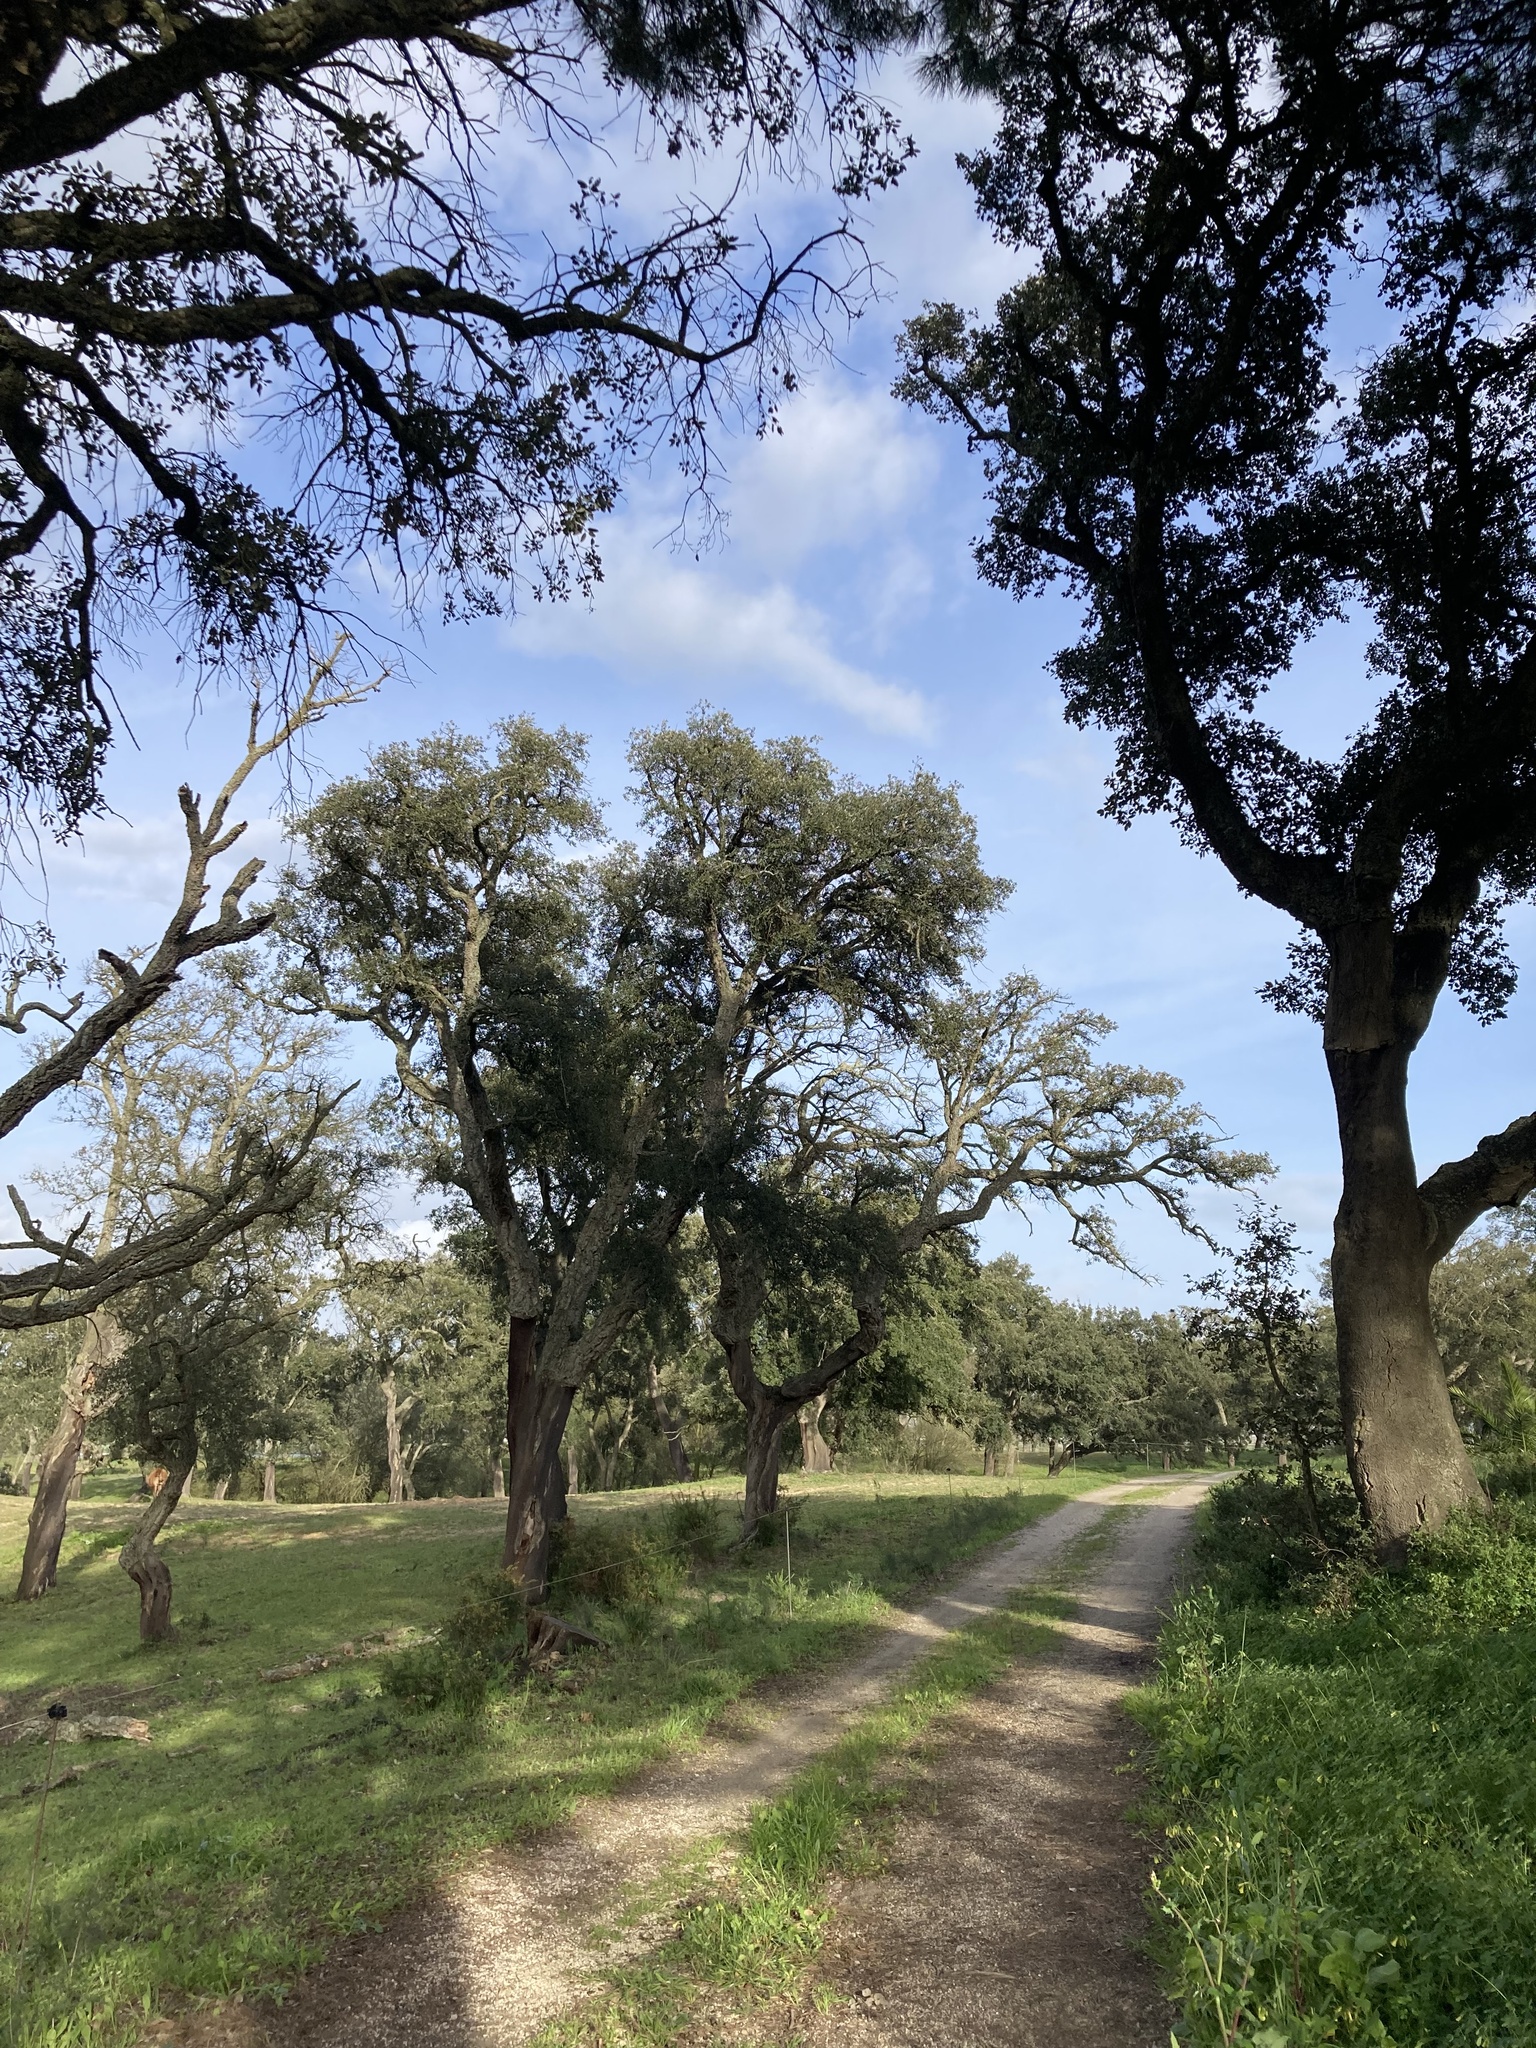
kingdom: Plantae
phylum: Tracheophyta
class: Magnoliopsida
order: Fagales
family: Fagaceae
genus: Quercus
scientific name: Quercus suber
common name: Cork oak
